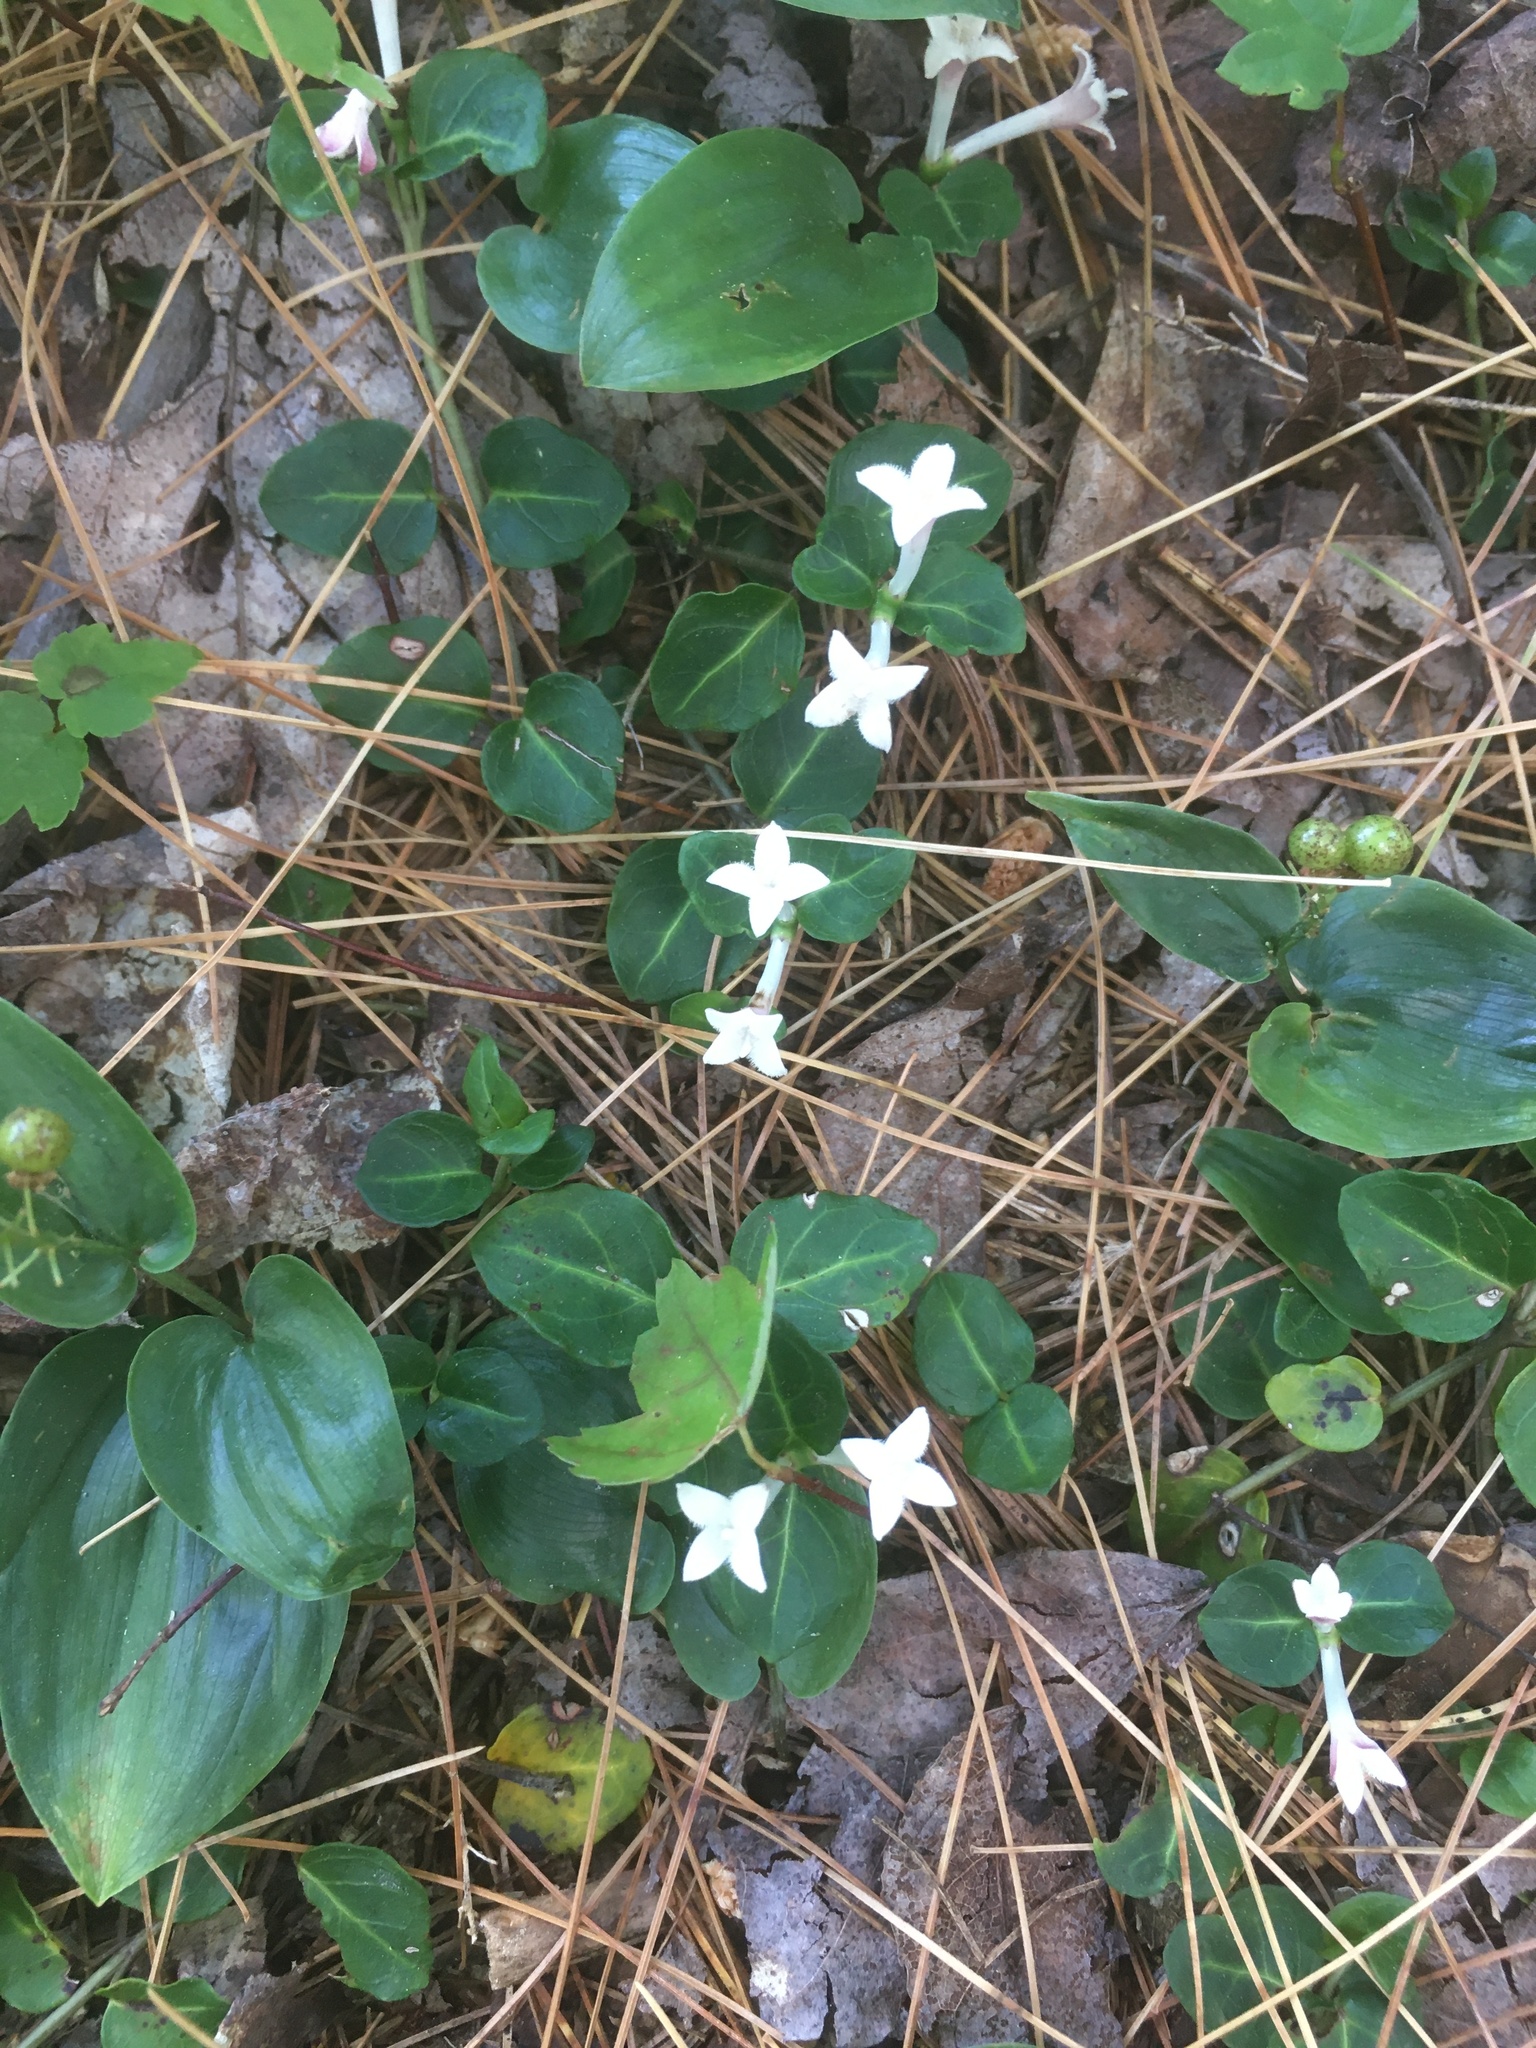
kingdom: Plantae
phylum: Tracheophyta
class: Magnoliopsida
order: Gentianales
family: Rubiaceae
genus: Mitchella
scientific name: Mitchella repens
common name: Partridge-berry
